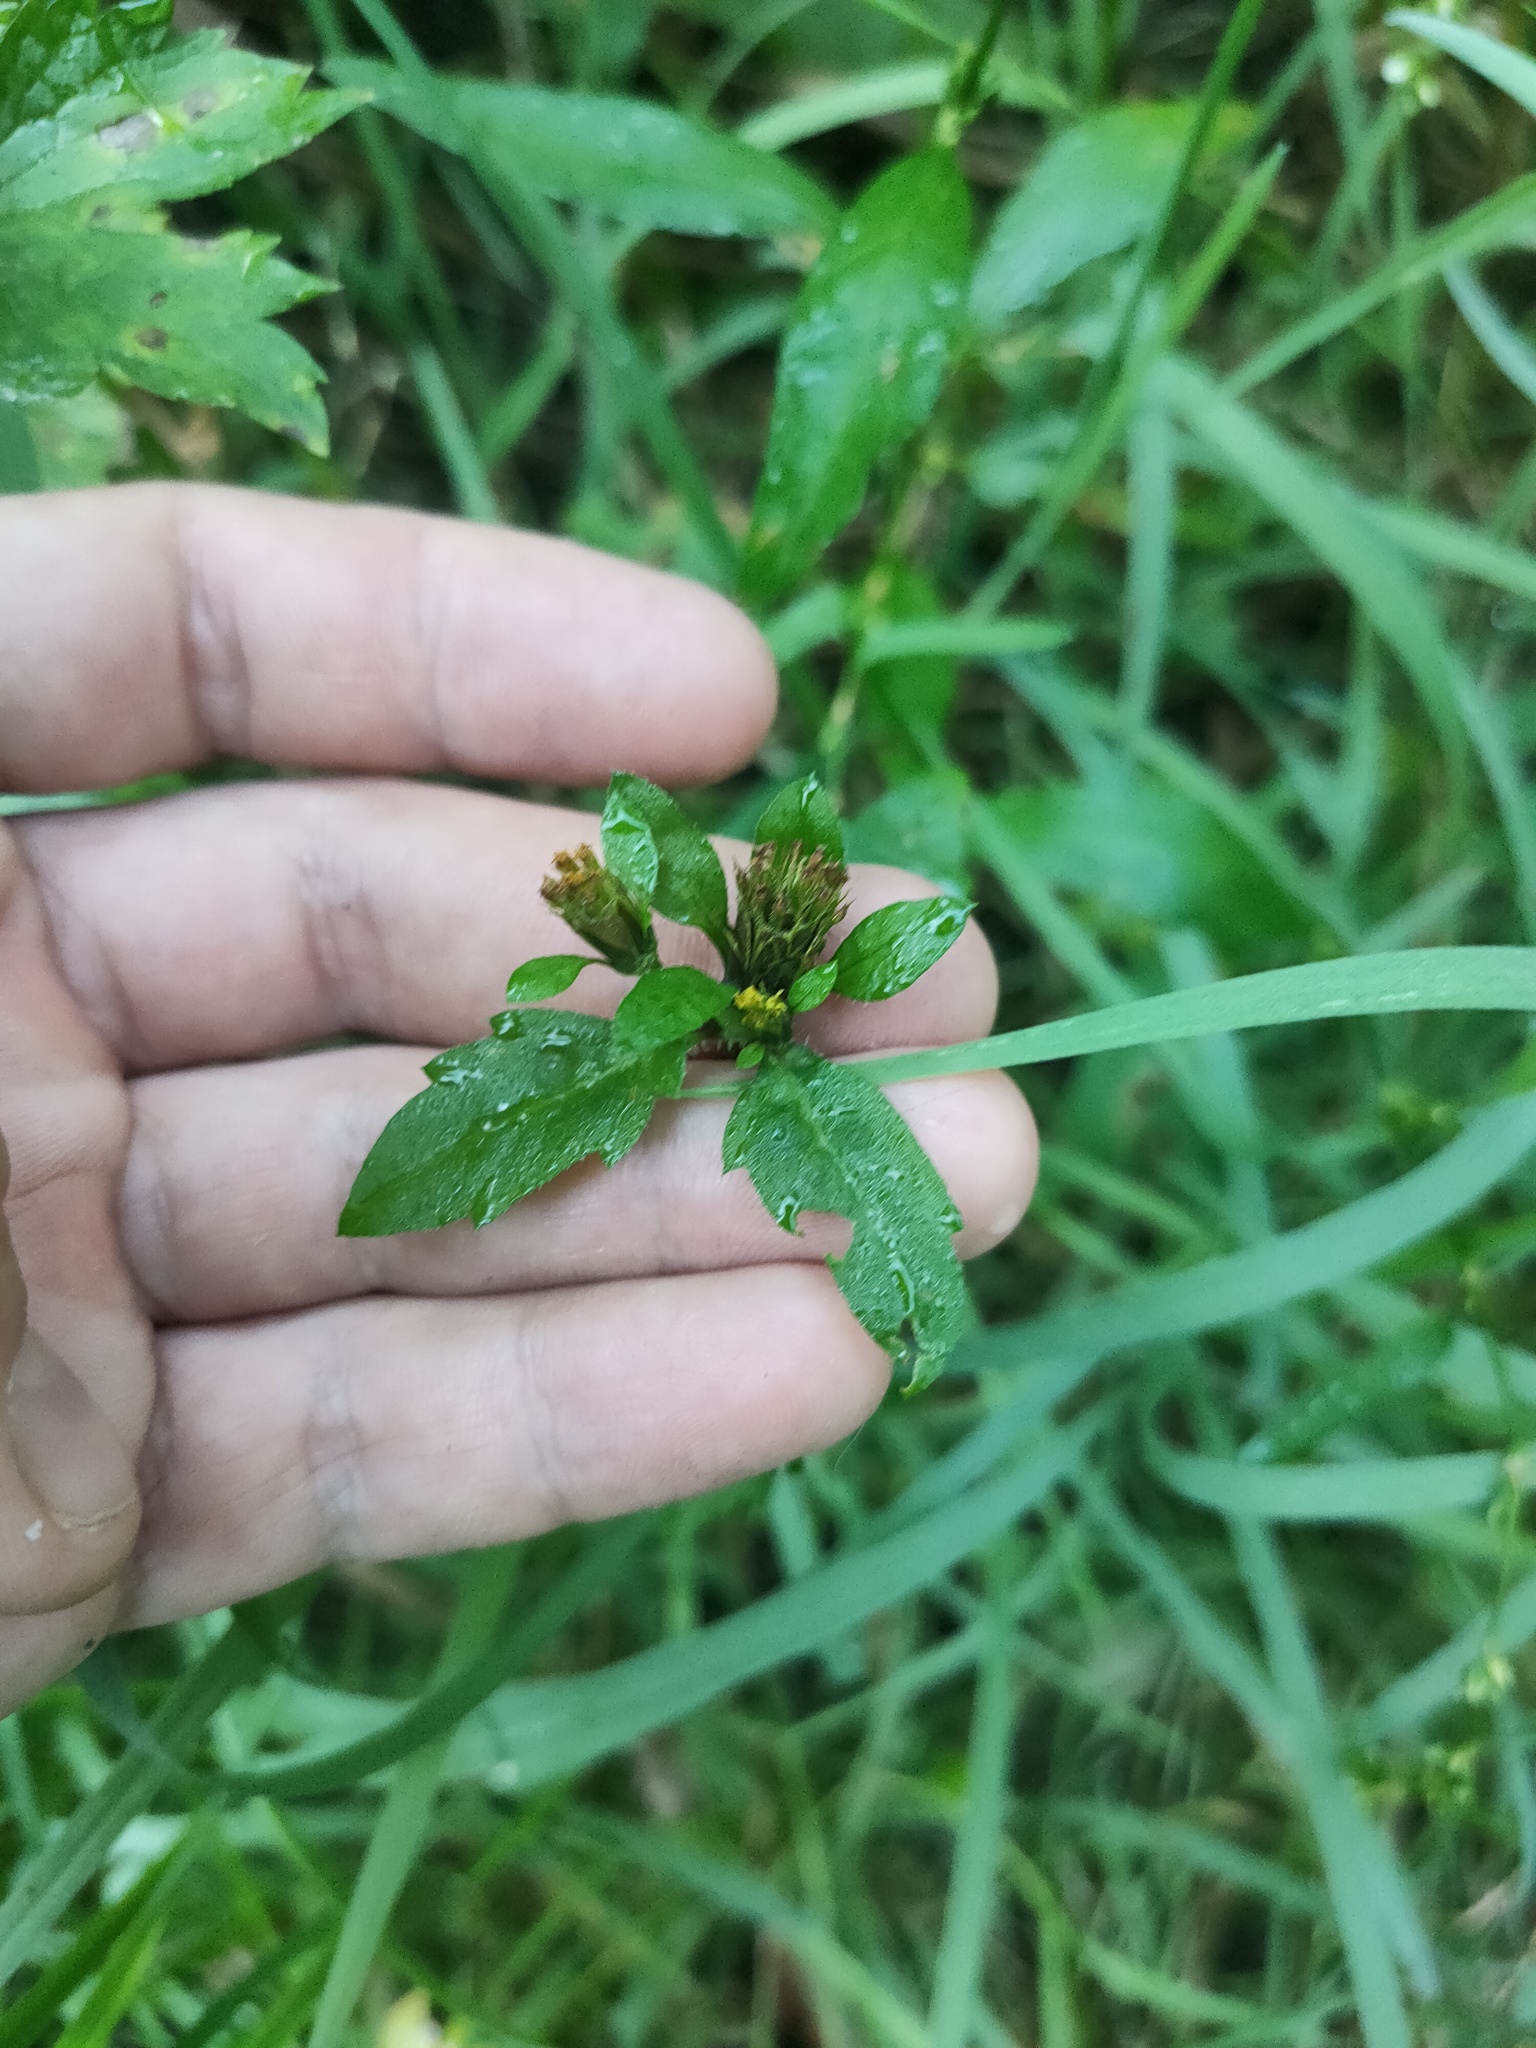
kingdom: Plantae
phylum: Tracheophyta
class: Magnoliopsida
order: Asterales
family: Asteraceae
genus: Bidens
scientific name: Bidens tripartita
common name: Trifid bur-marigold
